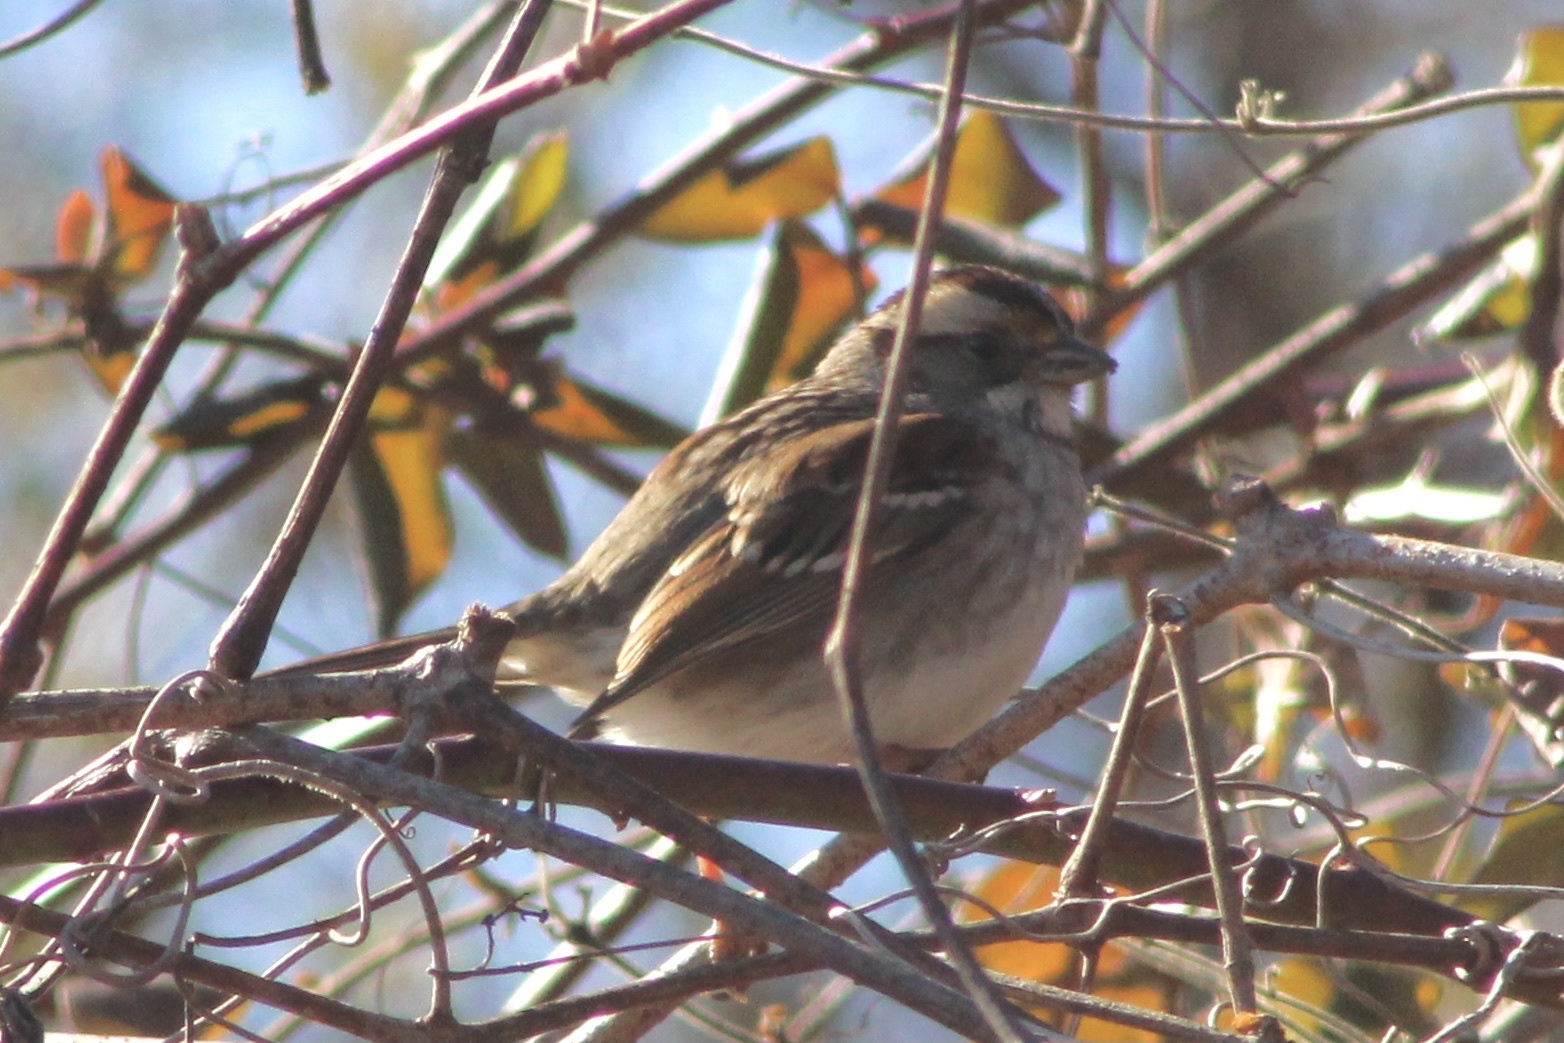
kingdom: Animalia
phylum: Chordata
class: Aves
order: Passeriformes
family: Passerellidae
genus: Zonotrichia
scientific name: Zonotrichia albicollis
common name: White-throated sparrow
